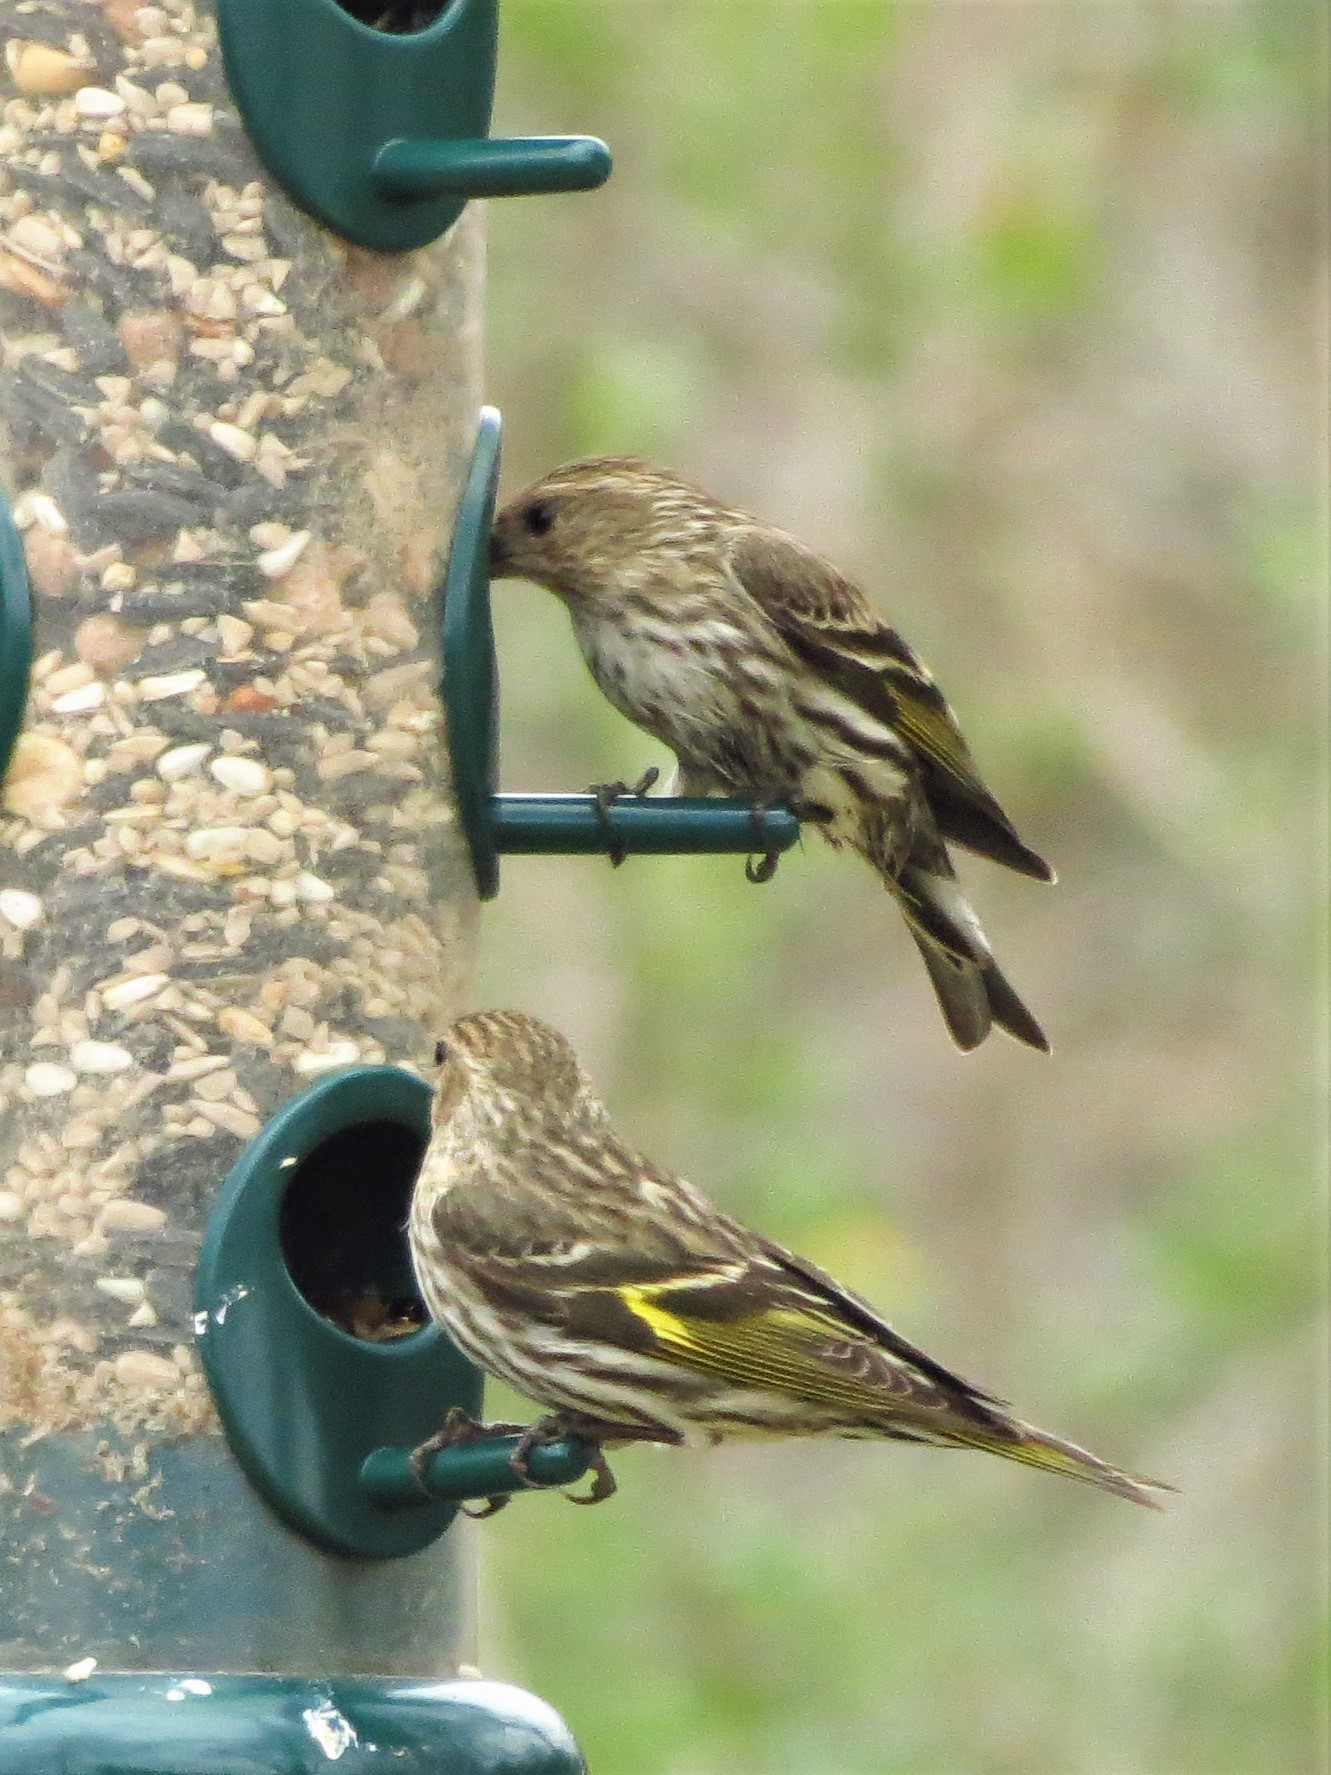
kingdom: Animalia
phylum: Chordata
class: Aves
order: Passeriformes
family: Fringillidae
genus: Spinus
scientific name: Spinus pinus
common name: Pine siskin
